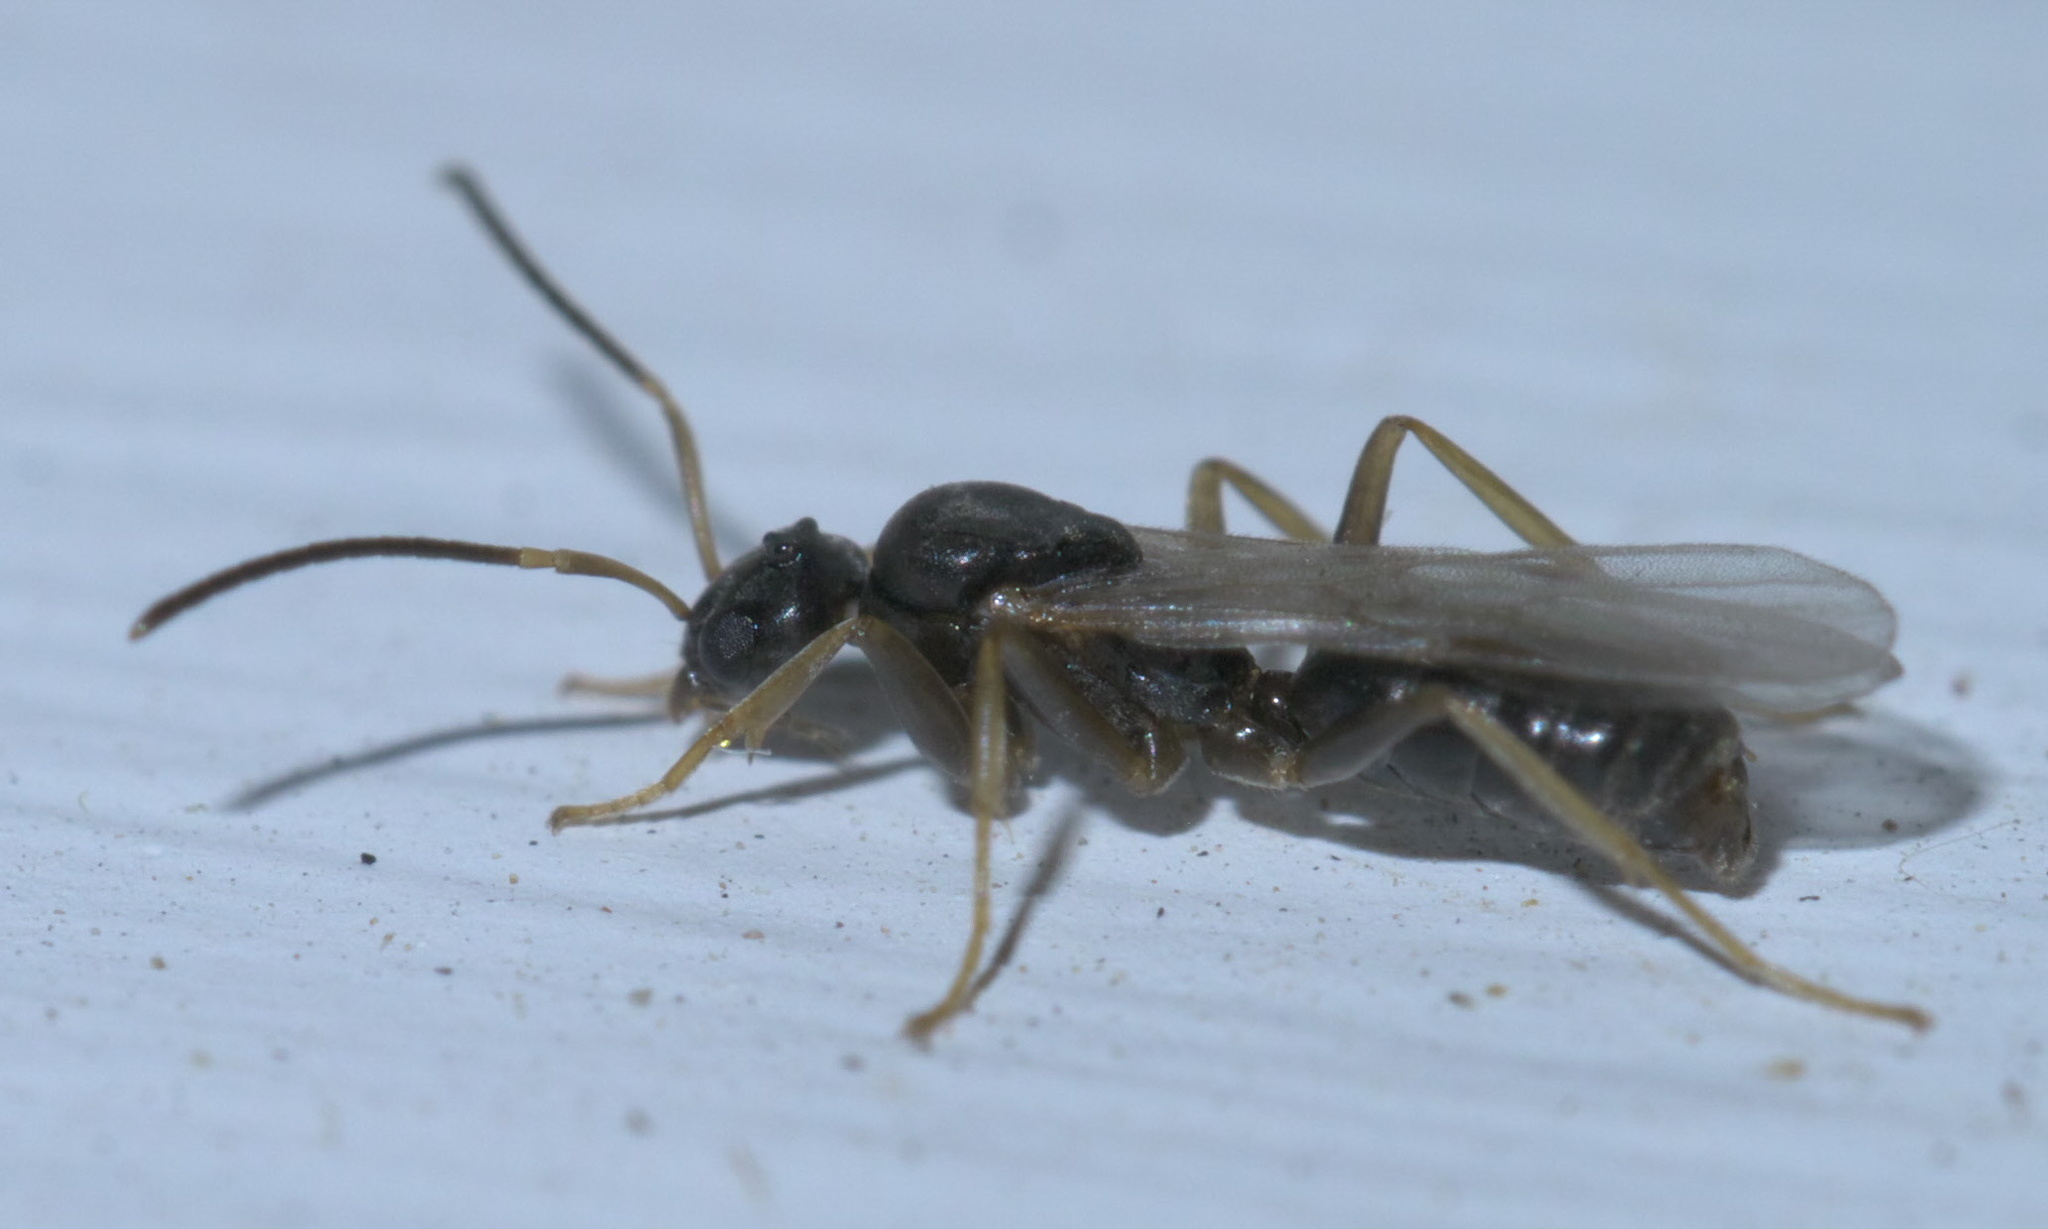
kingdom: Animalia
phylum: Arthropoda
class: Insecta
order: Hymenoptera
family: Formicidae
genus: Tapinoma
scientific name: Tapinoma sessile
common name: Odorous house ant
